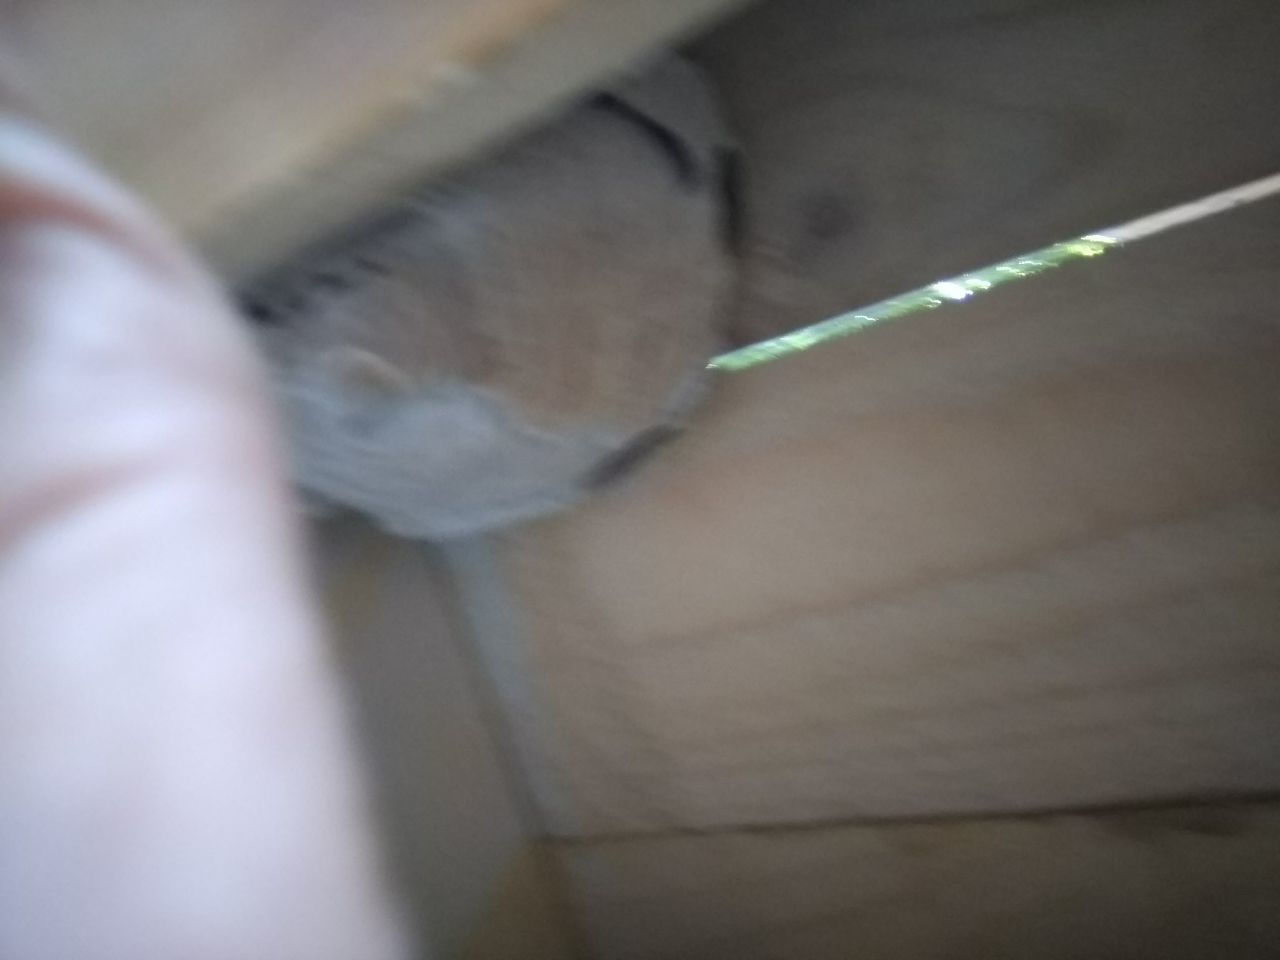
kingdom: Animalia
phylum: Arthropoda
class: Insecta
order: Hymenoptera
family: Vespidae
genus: Vespa
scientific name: Vespa velutina
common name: Asian hornet
